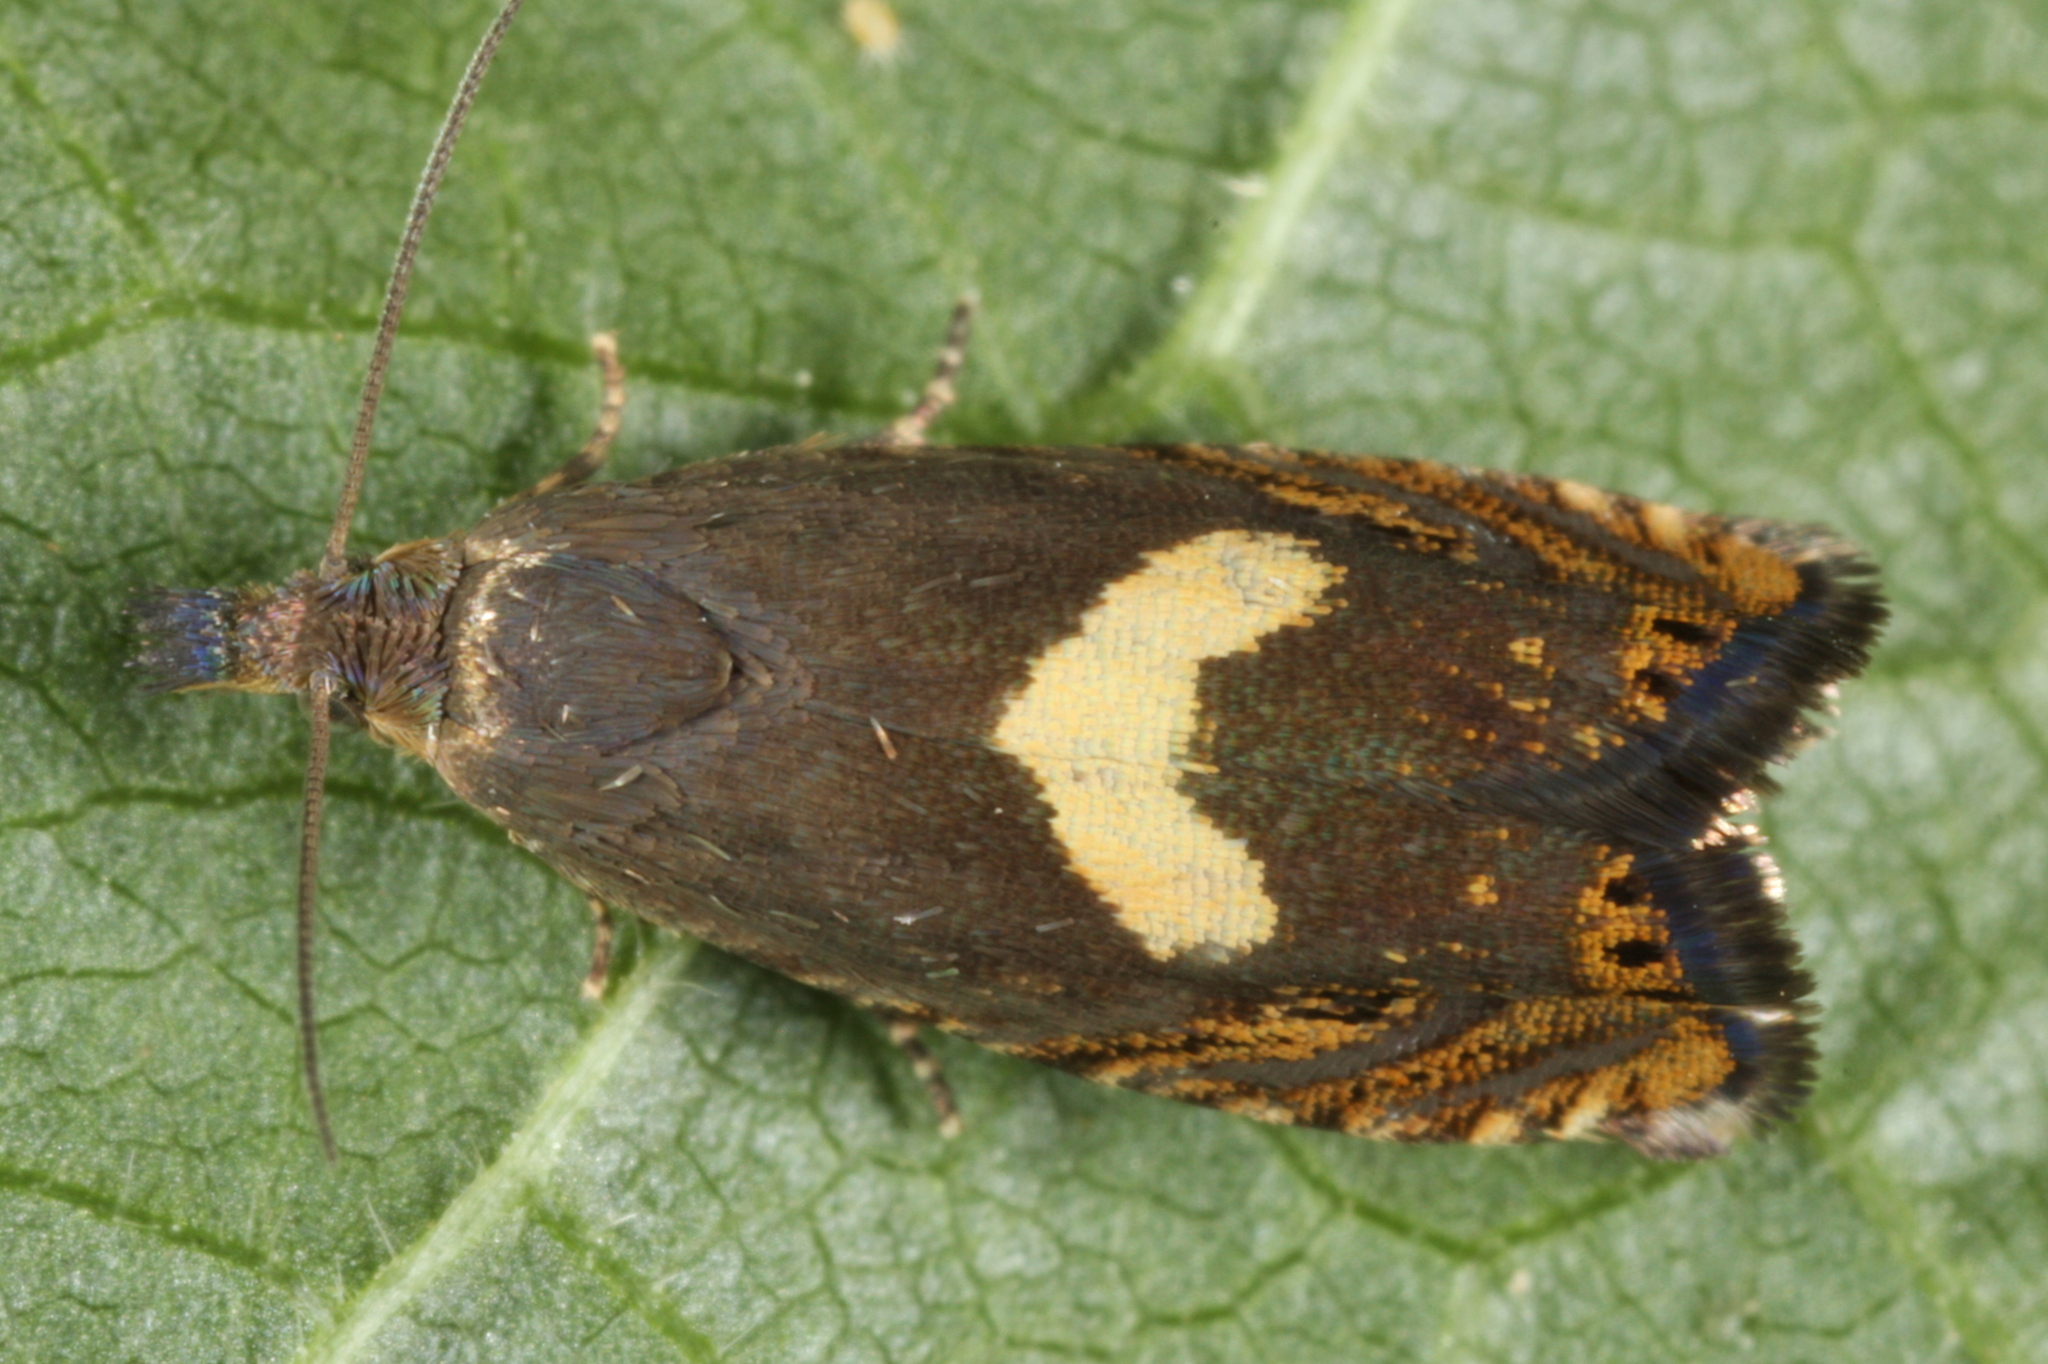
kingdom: Animalia
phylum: Arthropoda
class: Insecta
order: Lepidoptera
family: Tortricidae
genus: Dichrorampha
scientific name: Dichrorampha petiverella
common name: Common drill
